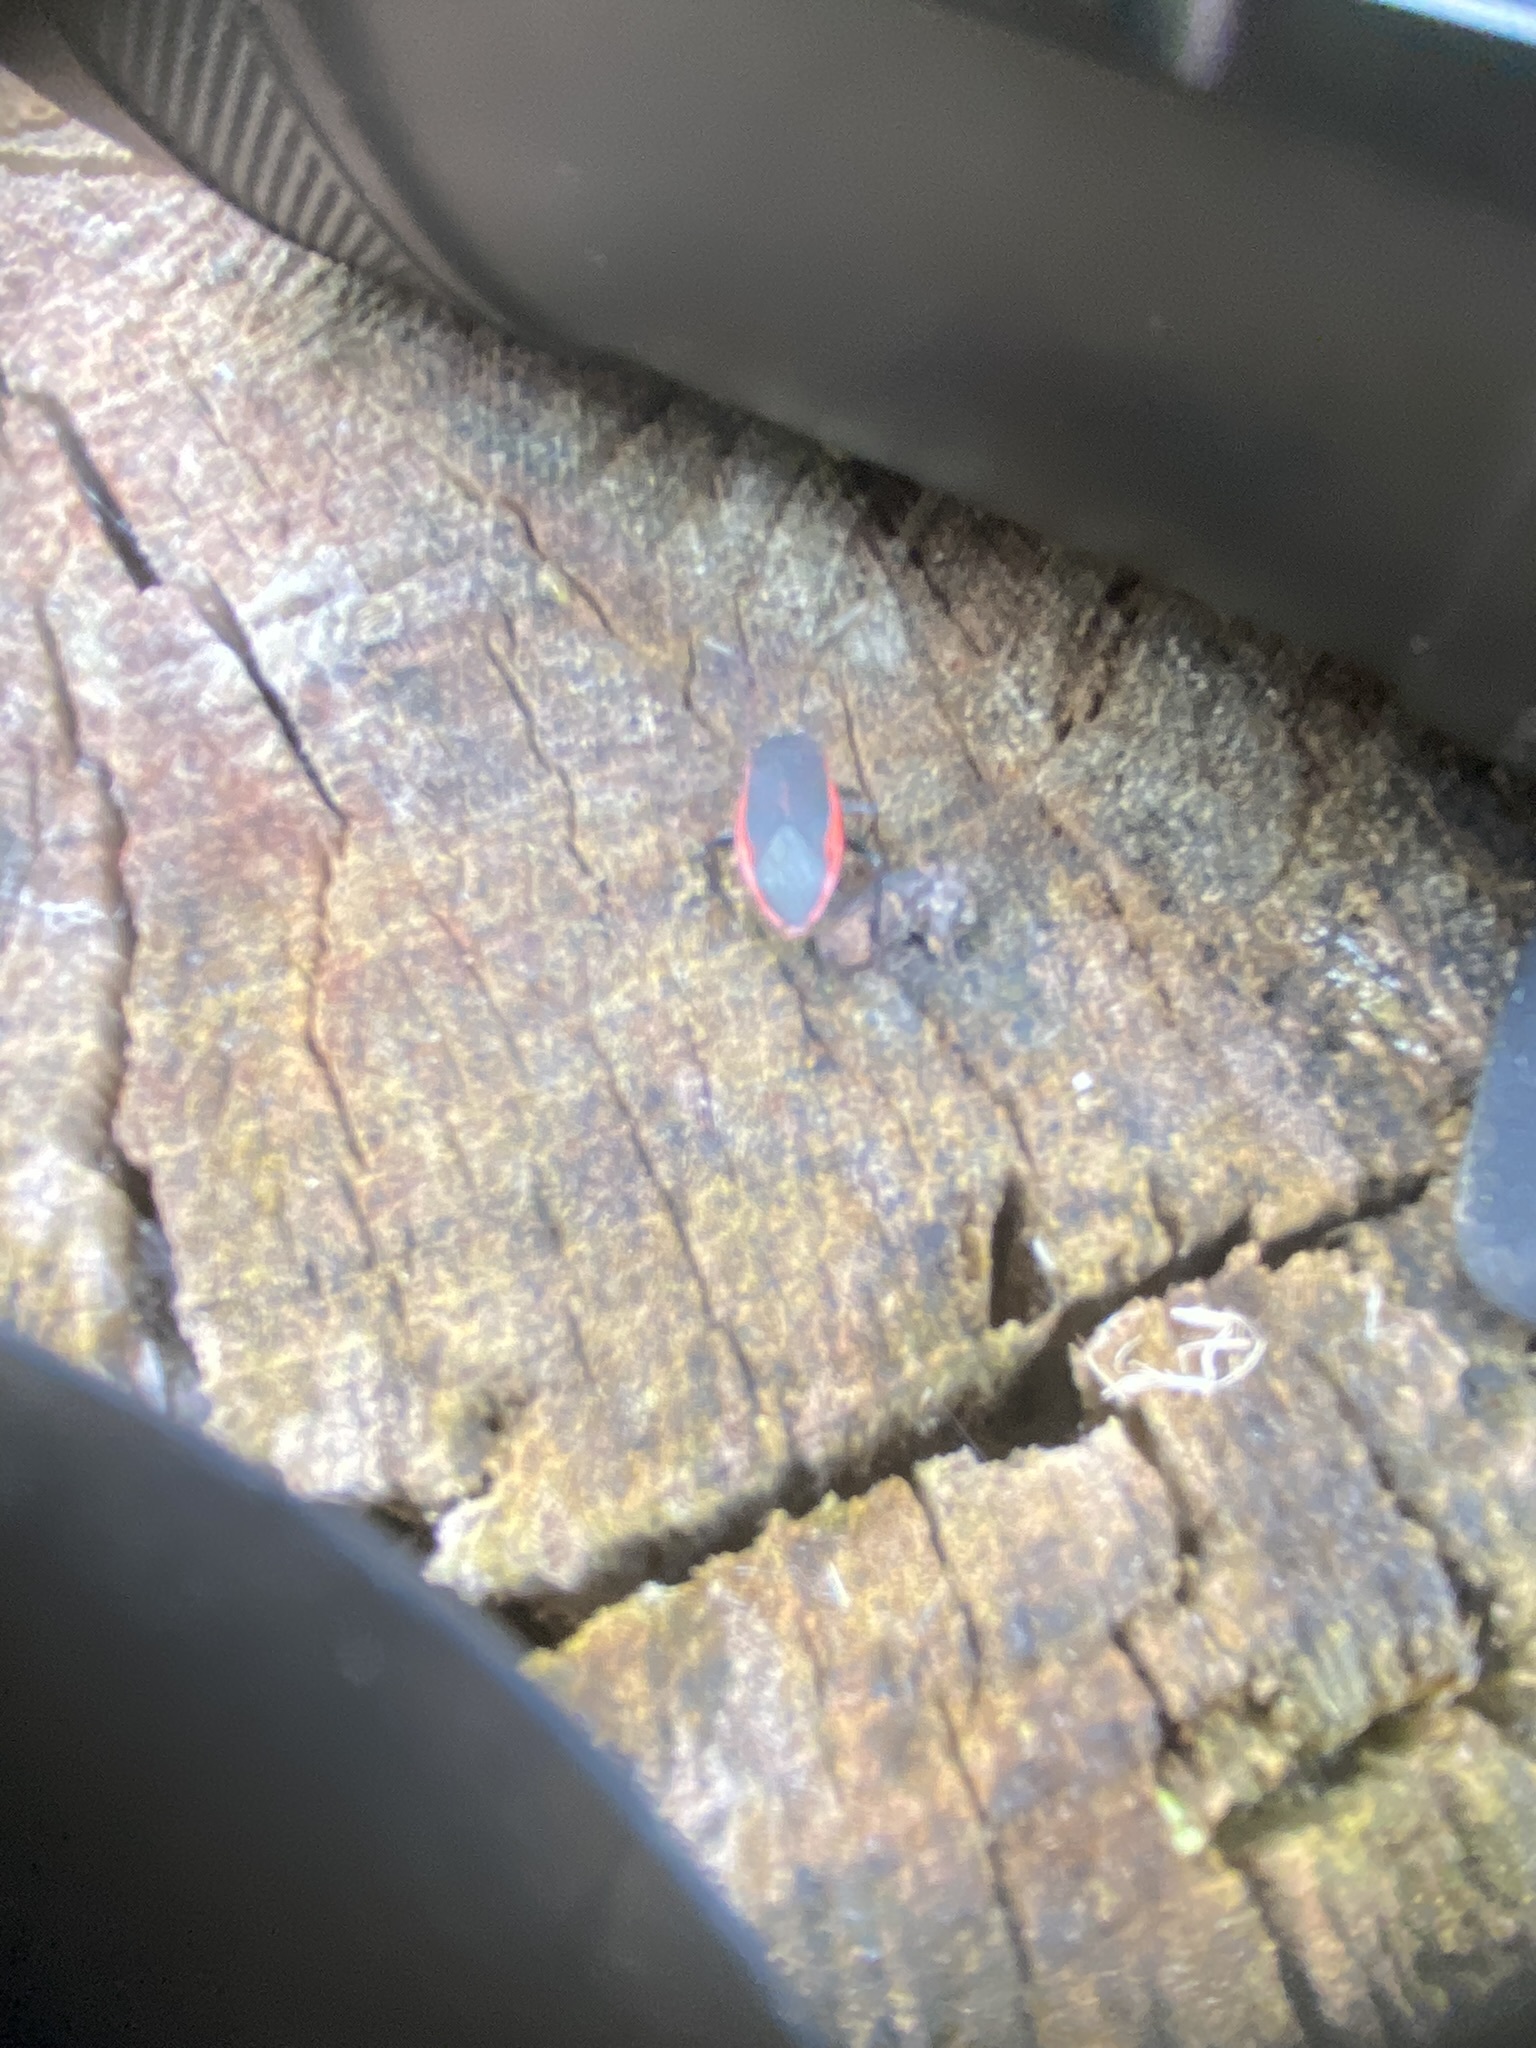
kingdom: Animalia
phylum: Arthropoda
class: Insecta
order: Hemiptera
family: Largidae
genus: Largus
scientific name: Largus rufipennis
